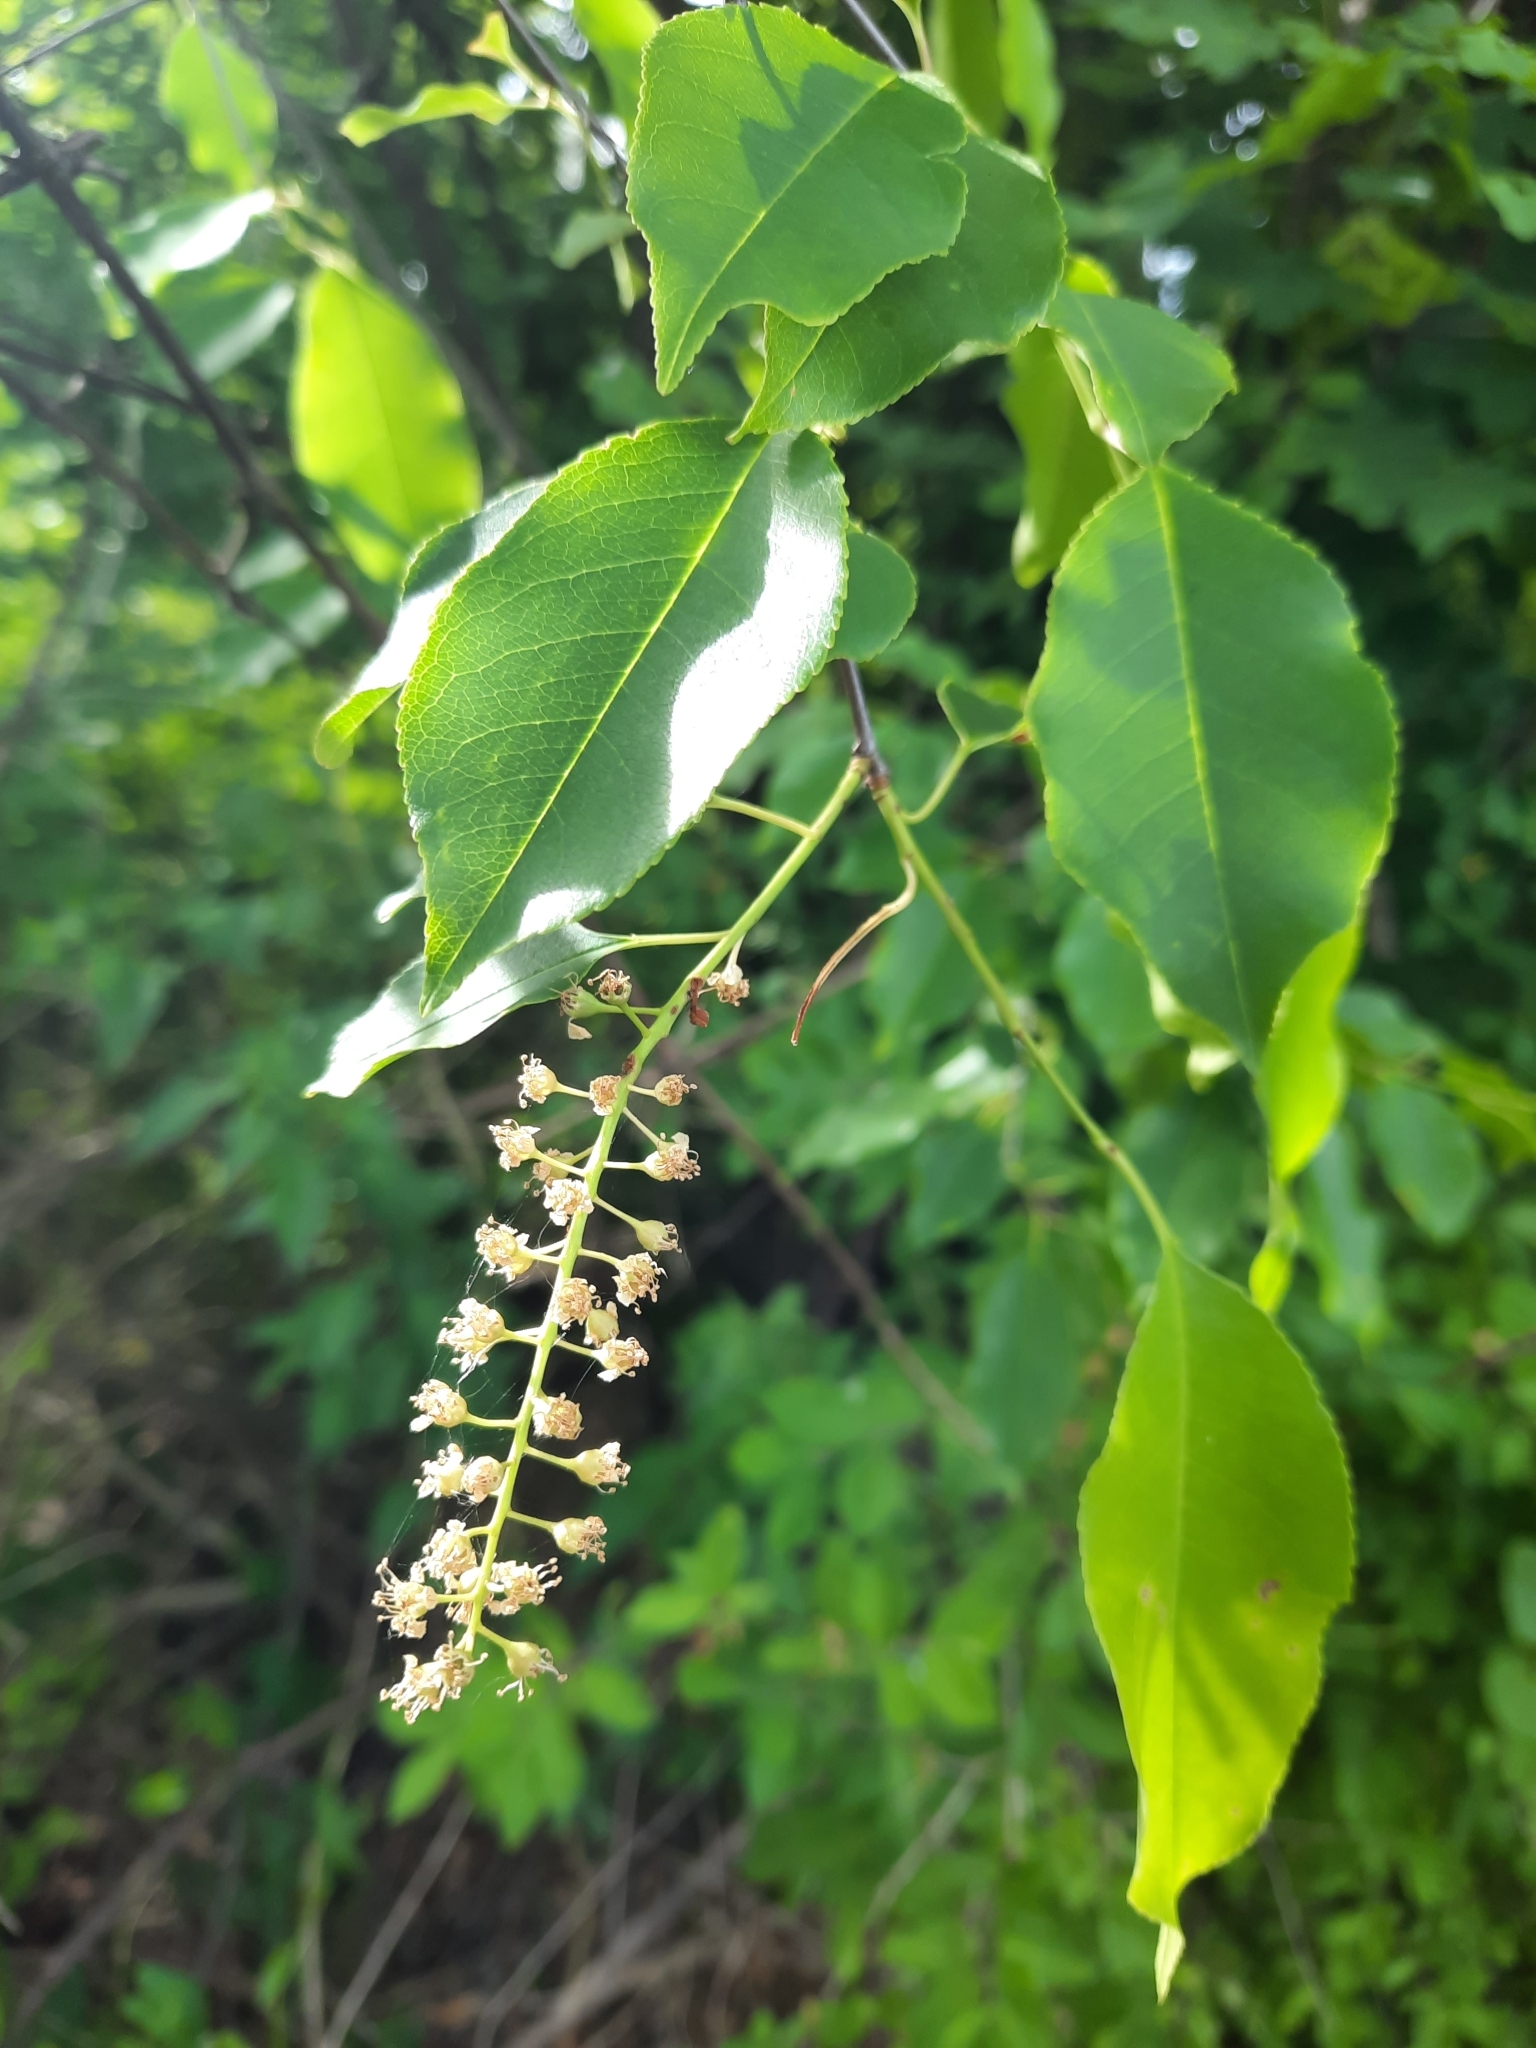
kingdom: Plantae
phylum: Tracheophyta
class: Magnoliopsida
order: Rosales
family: Rosaceae
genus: Prunus
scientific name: Prunus serotina
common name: Black cherry
